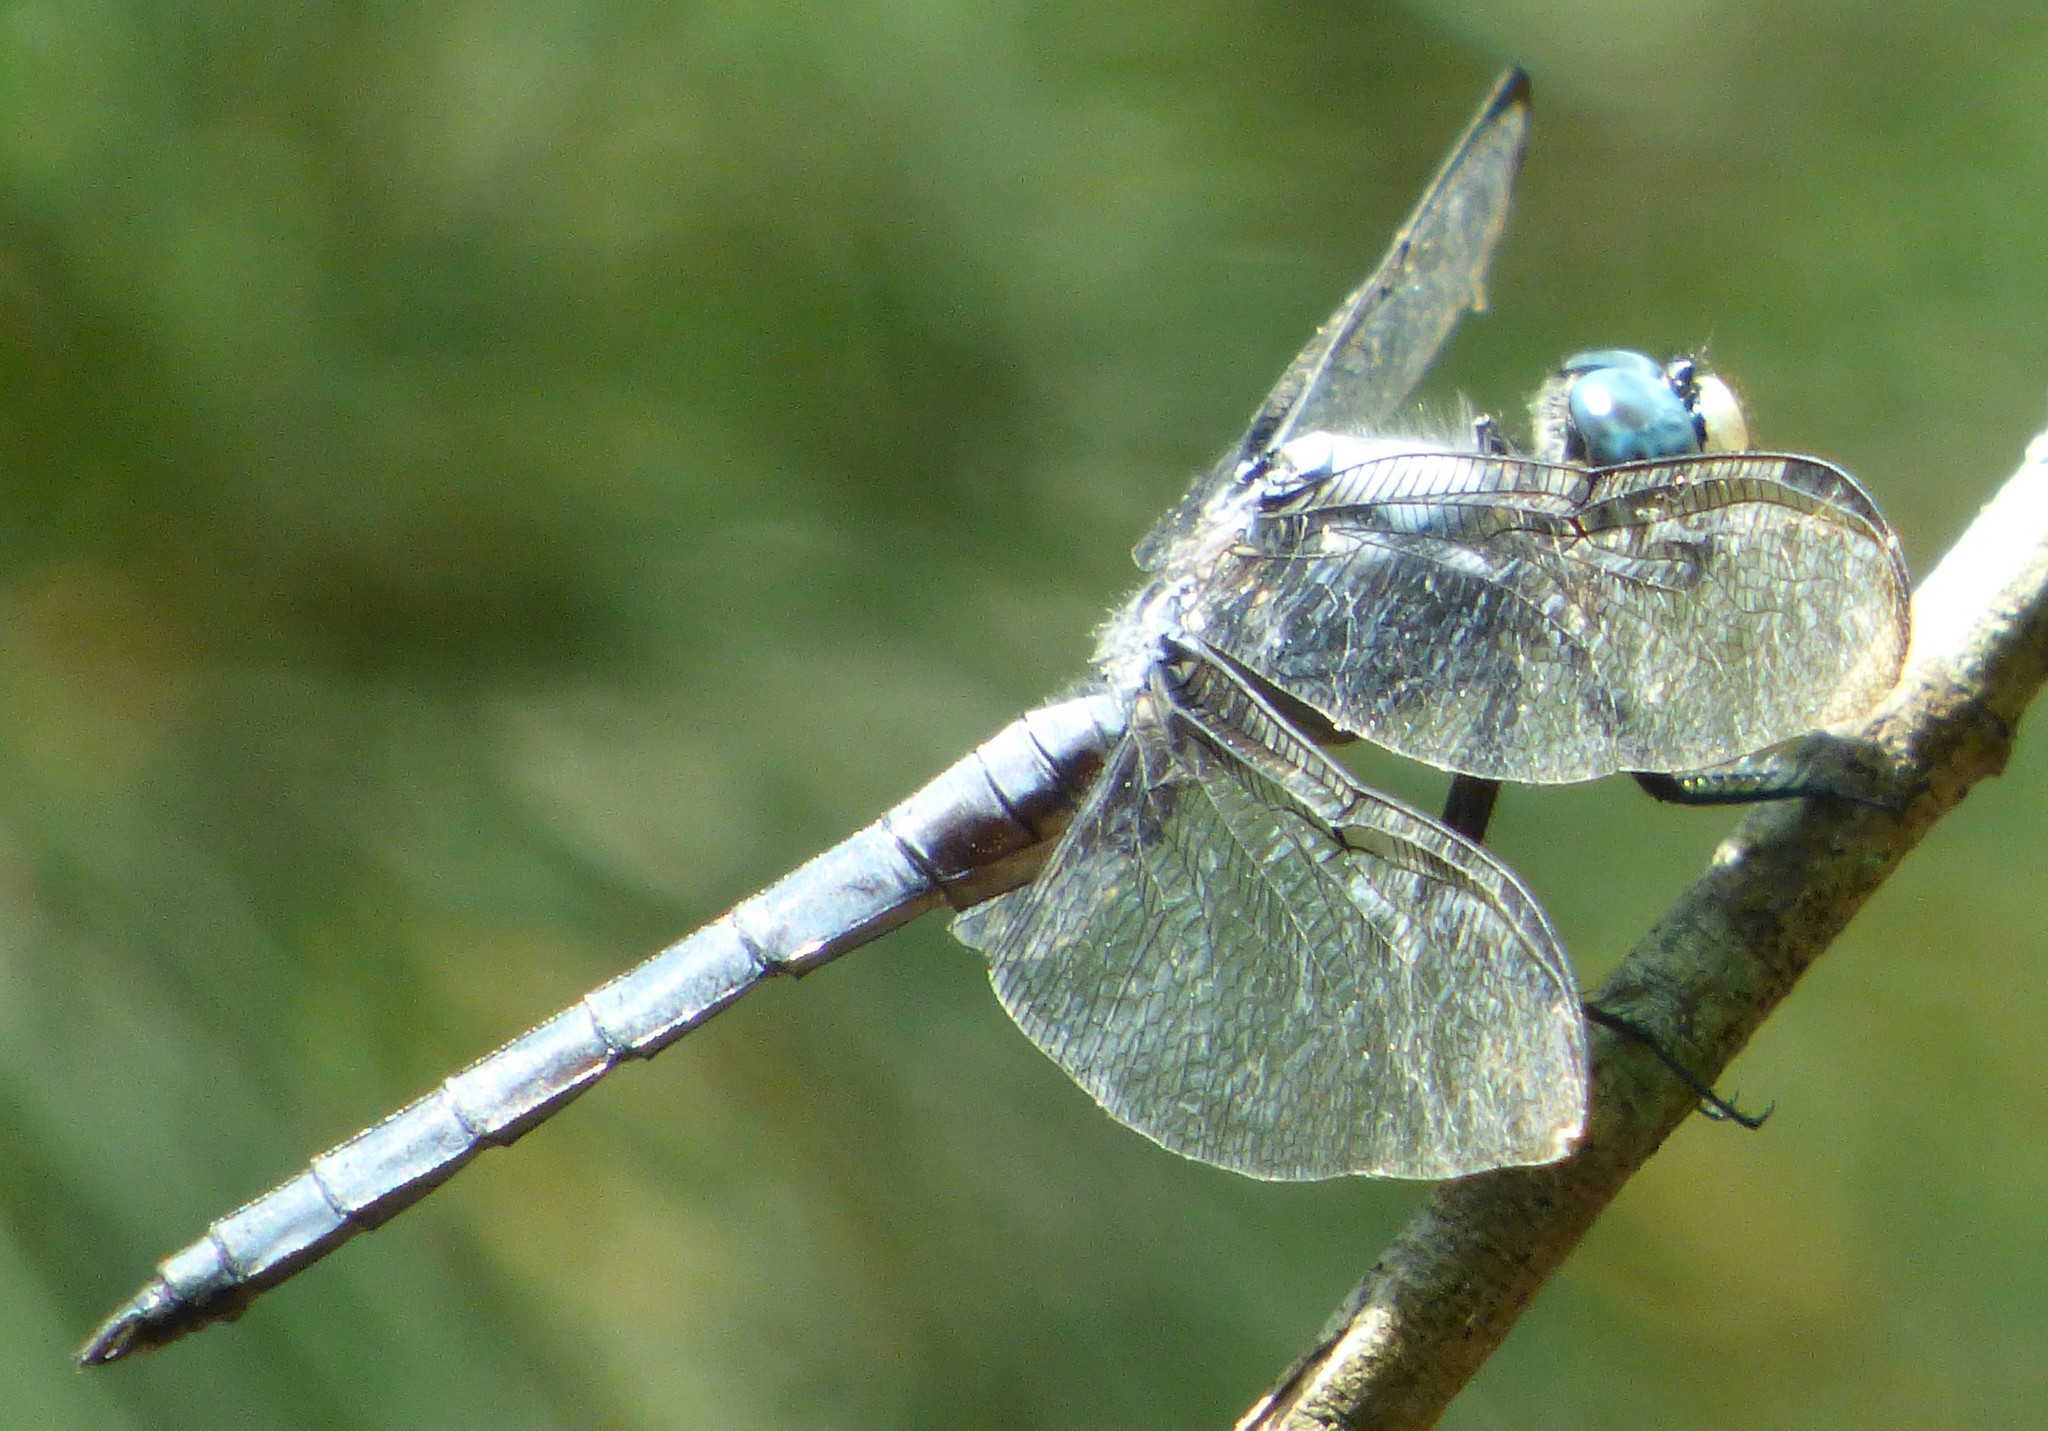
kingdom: Animalia
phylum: Arthropoda
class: Insecta
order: Odonata
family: Libellulidae
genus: Libellula
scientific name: Libellula vibrans
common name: Great blue skimmer
